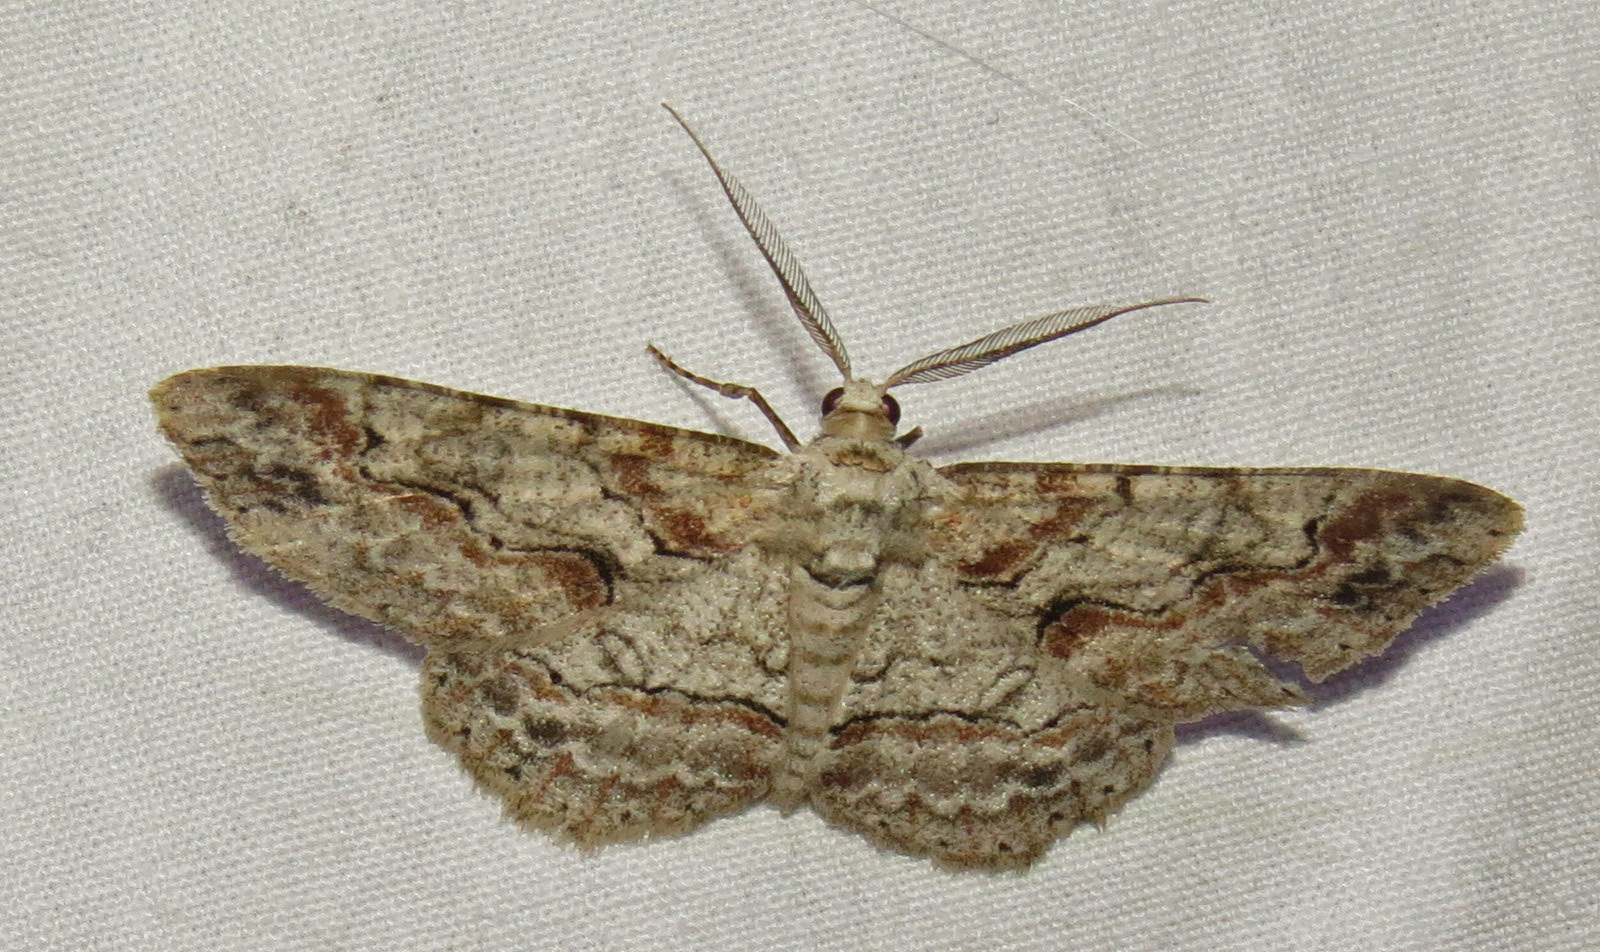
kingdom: Animalia
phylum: Arthropoda
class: Insecta
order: Lepidoptera
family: Geometridae
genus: Iridopsis
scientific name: Iridopsis defectaria
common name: Brown-shaded gray
